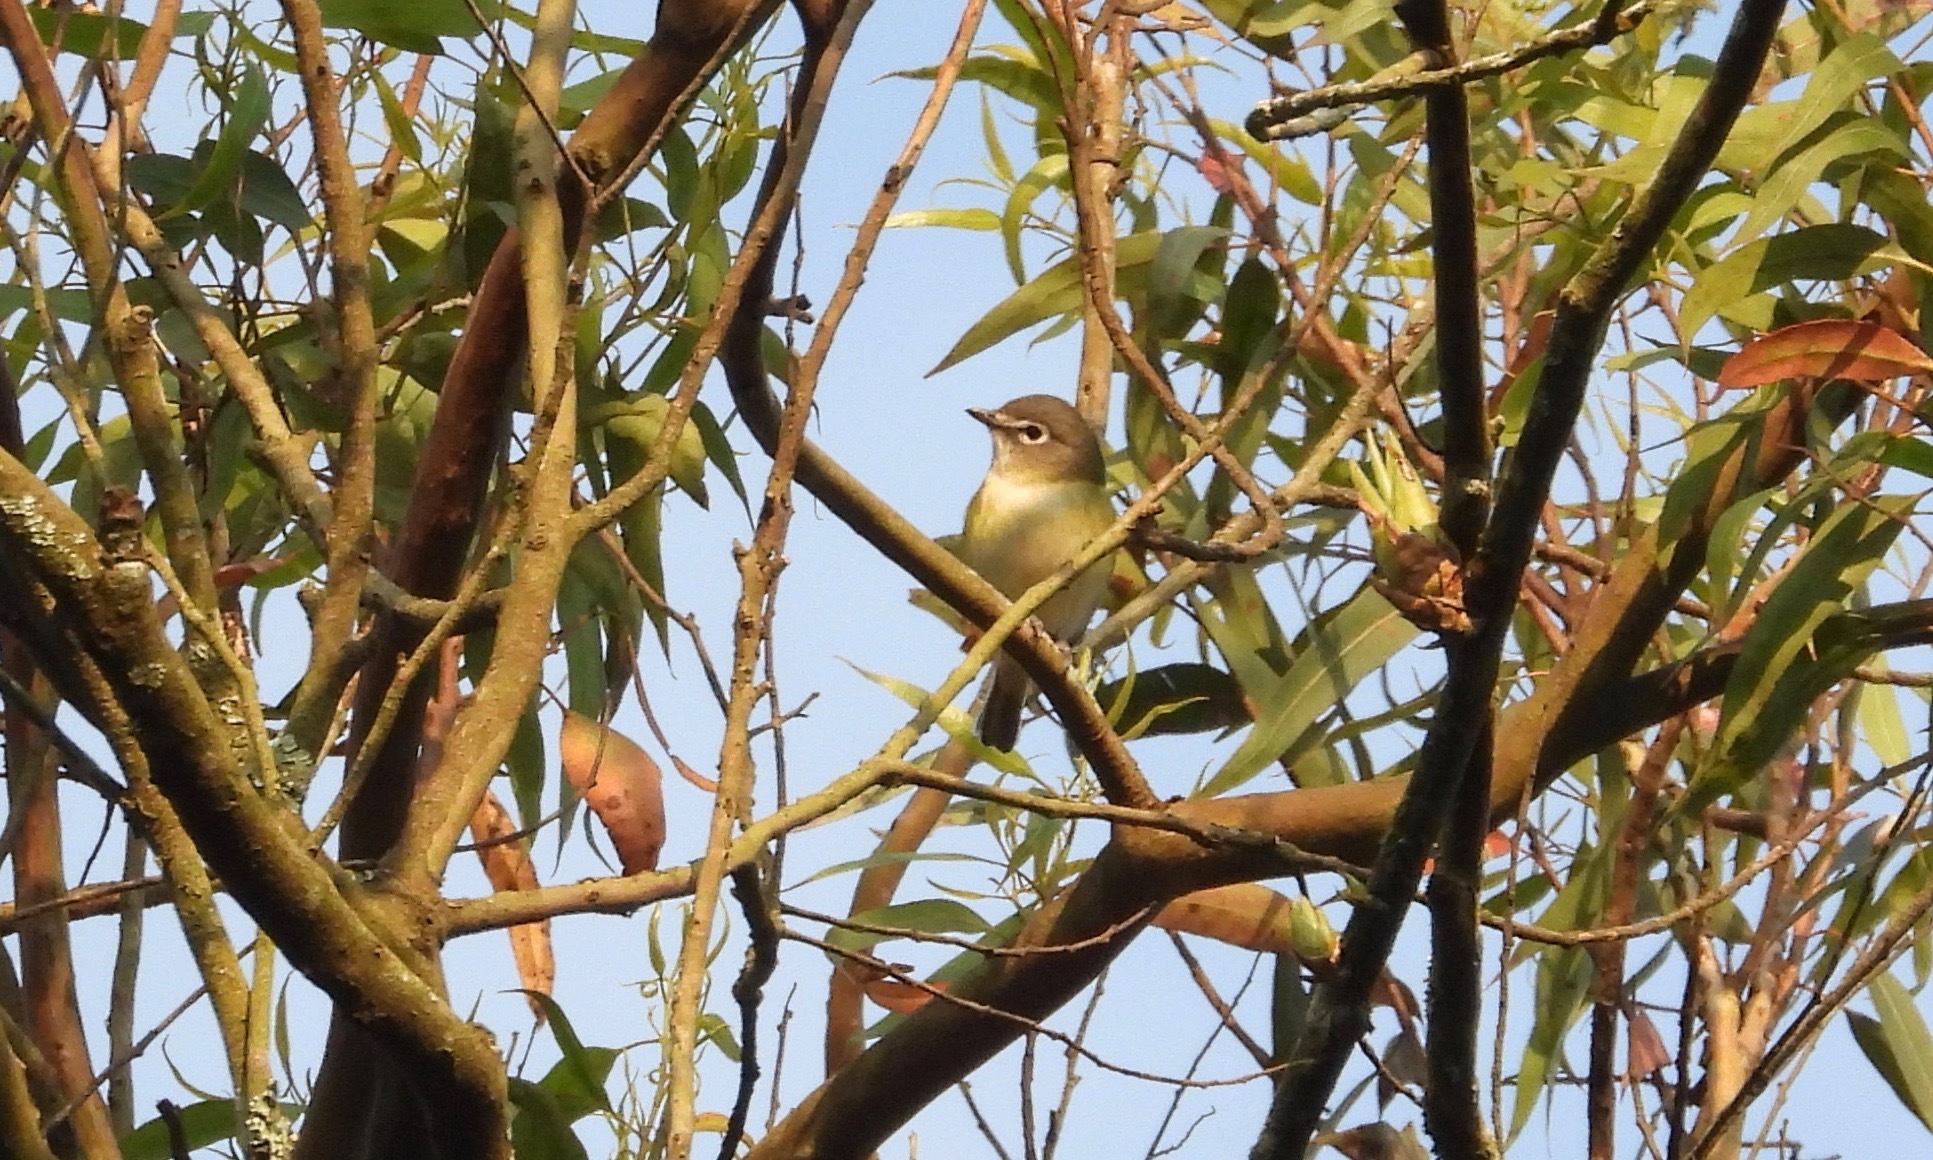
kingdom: Animalia
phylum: Chordata
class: Aves
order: Passeriformes
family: Vireonidae
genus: Vireo
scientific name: Vireo solitarius
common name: Blue-headed vireo
